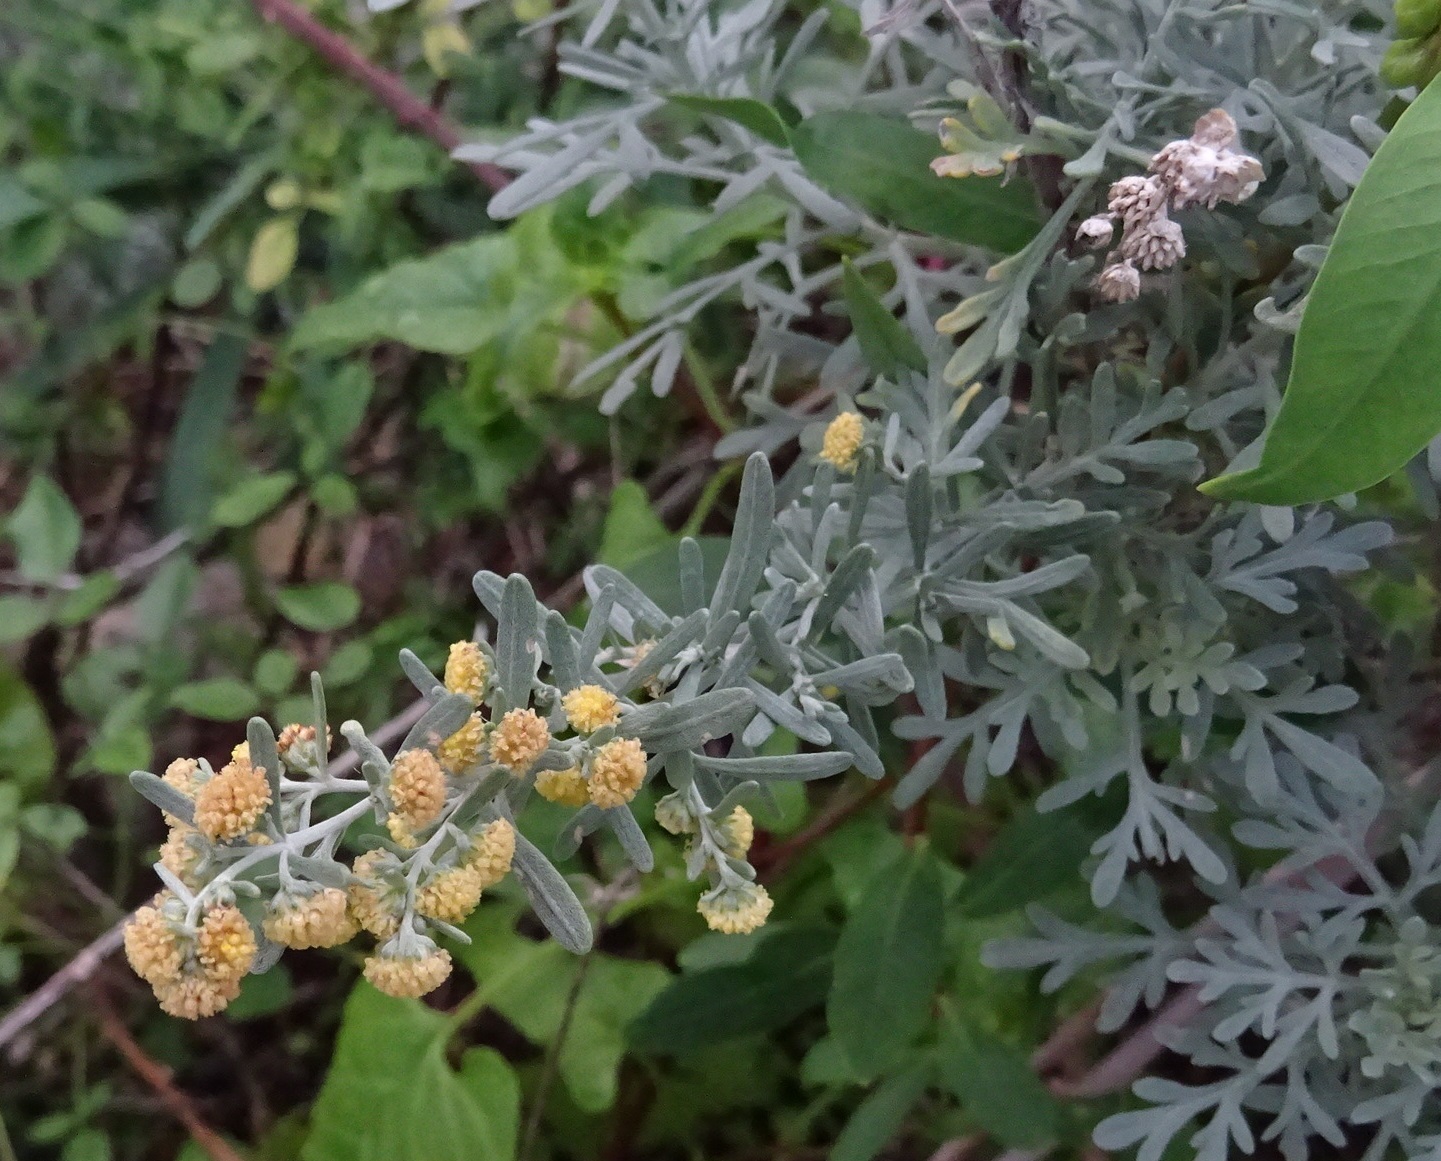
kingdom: Plantae
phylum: Tracheophyta
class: Magnoliopsida
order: Asterales
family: Asteraceae
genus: Artemisia
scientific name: Artemisia thuscula
